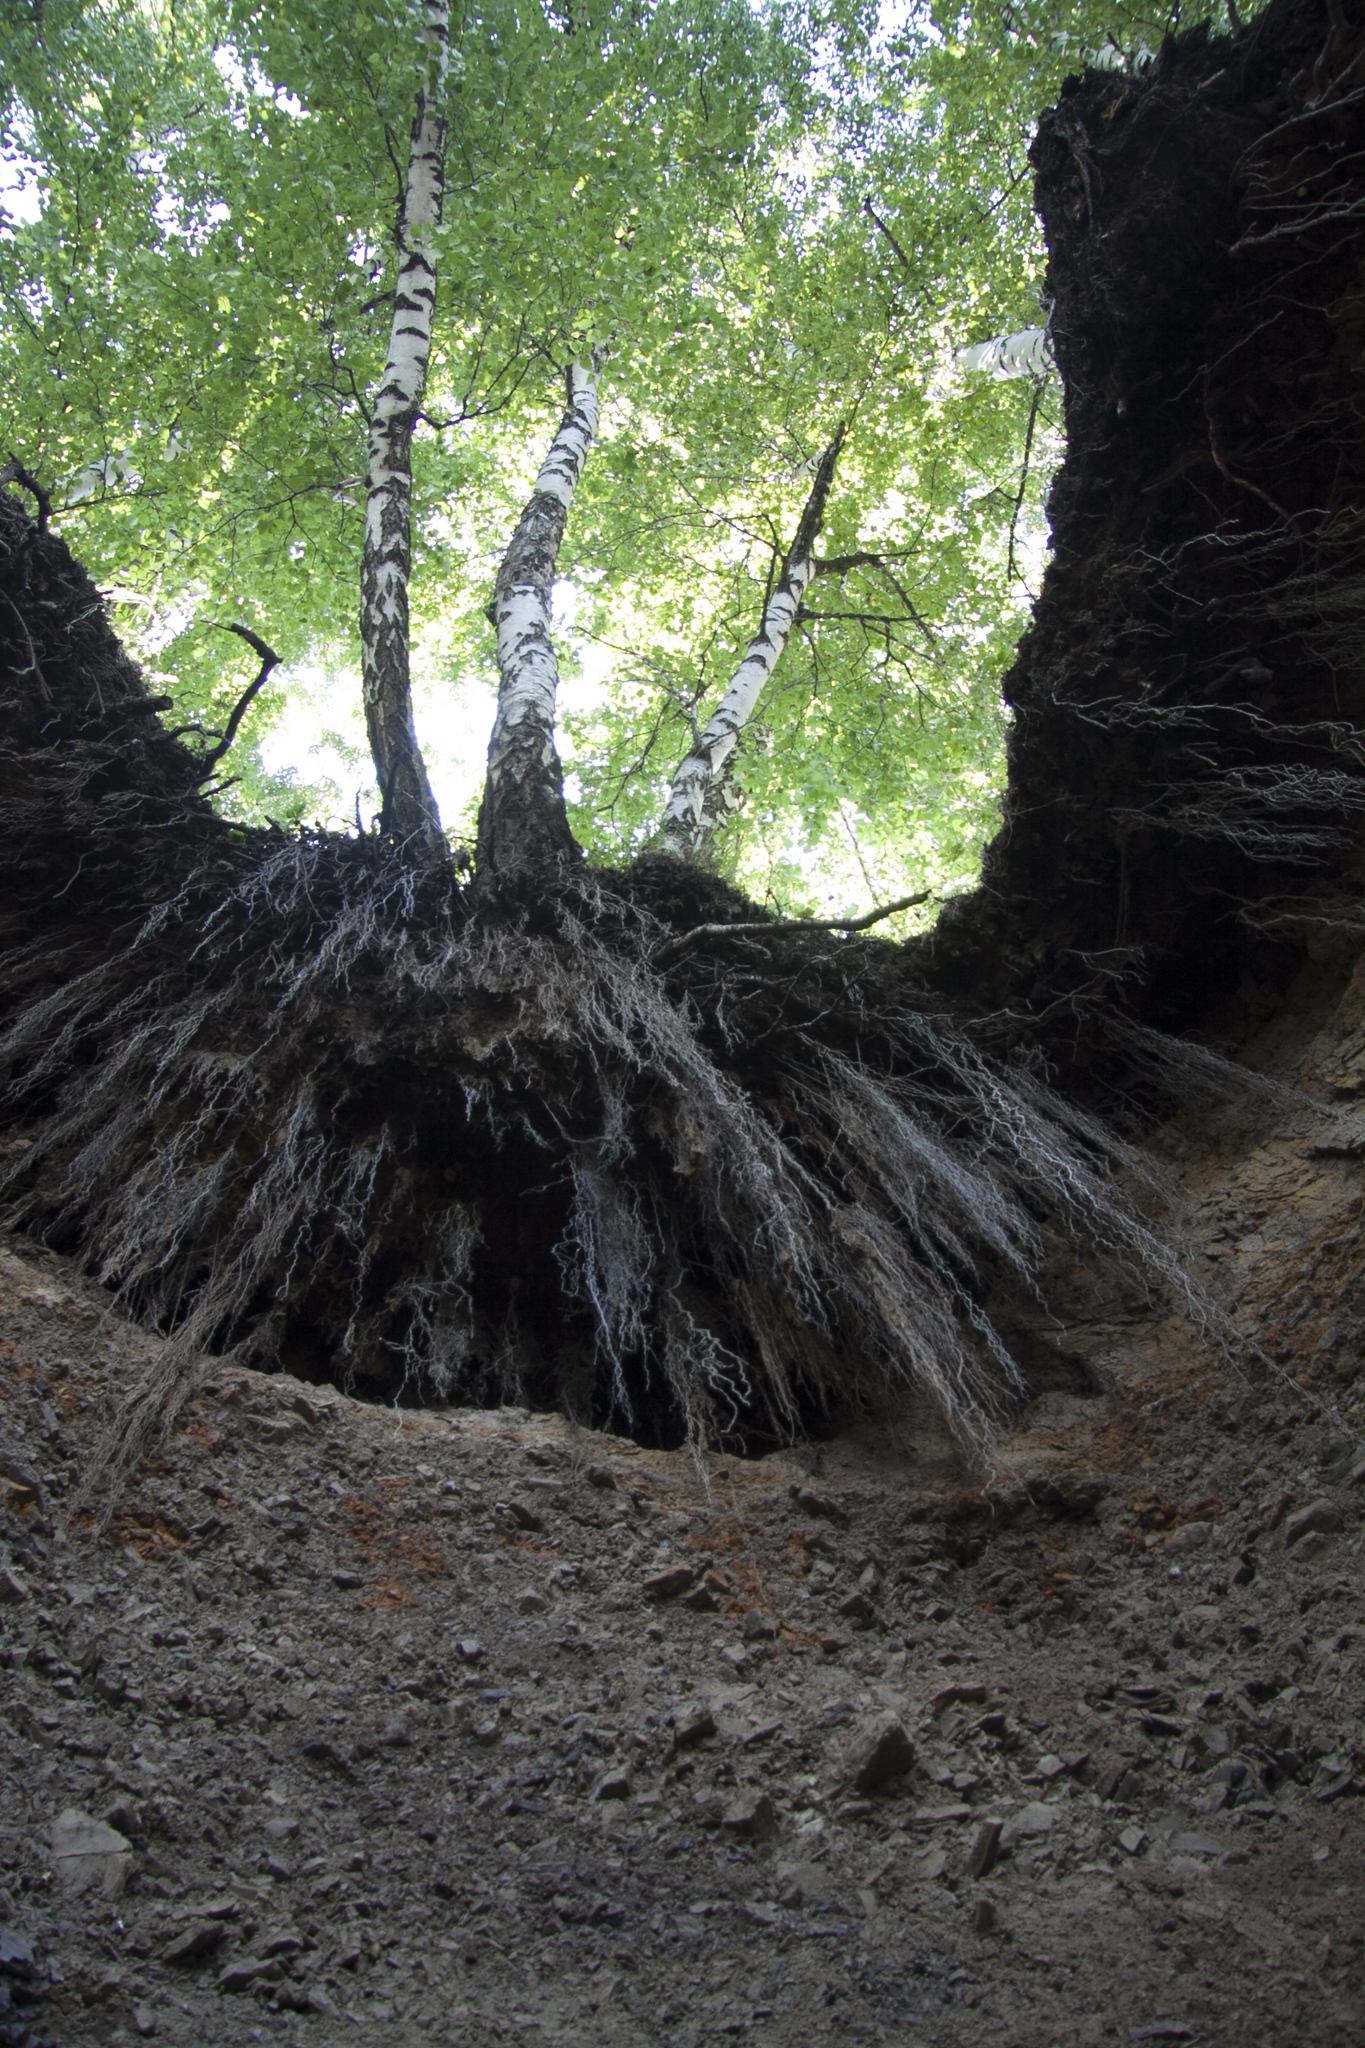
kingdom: Plantae
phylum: Tracheophyta
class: Magnoliopsida
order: Fagales
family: Betulaceae
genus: Betula
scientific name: Betula pendula
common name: Silver birch
